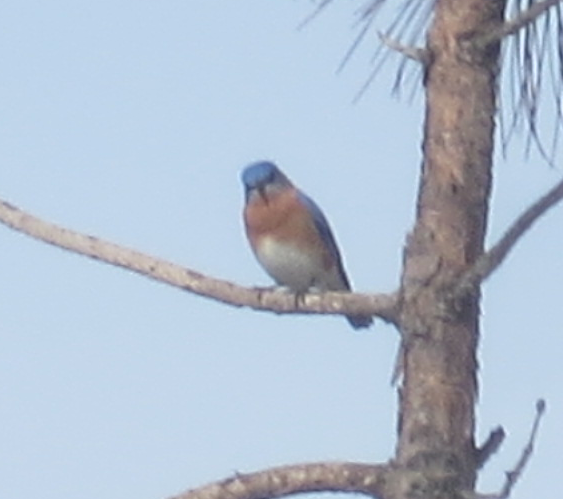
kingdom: Animalia
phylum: Chordata
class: Aves
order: Passeriformes
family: Turdidae
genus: Sialia
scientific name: Sialia sialis
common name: Eastern bluebird
